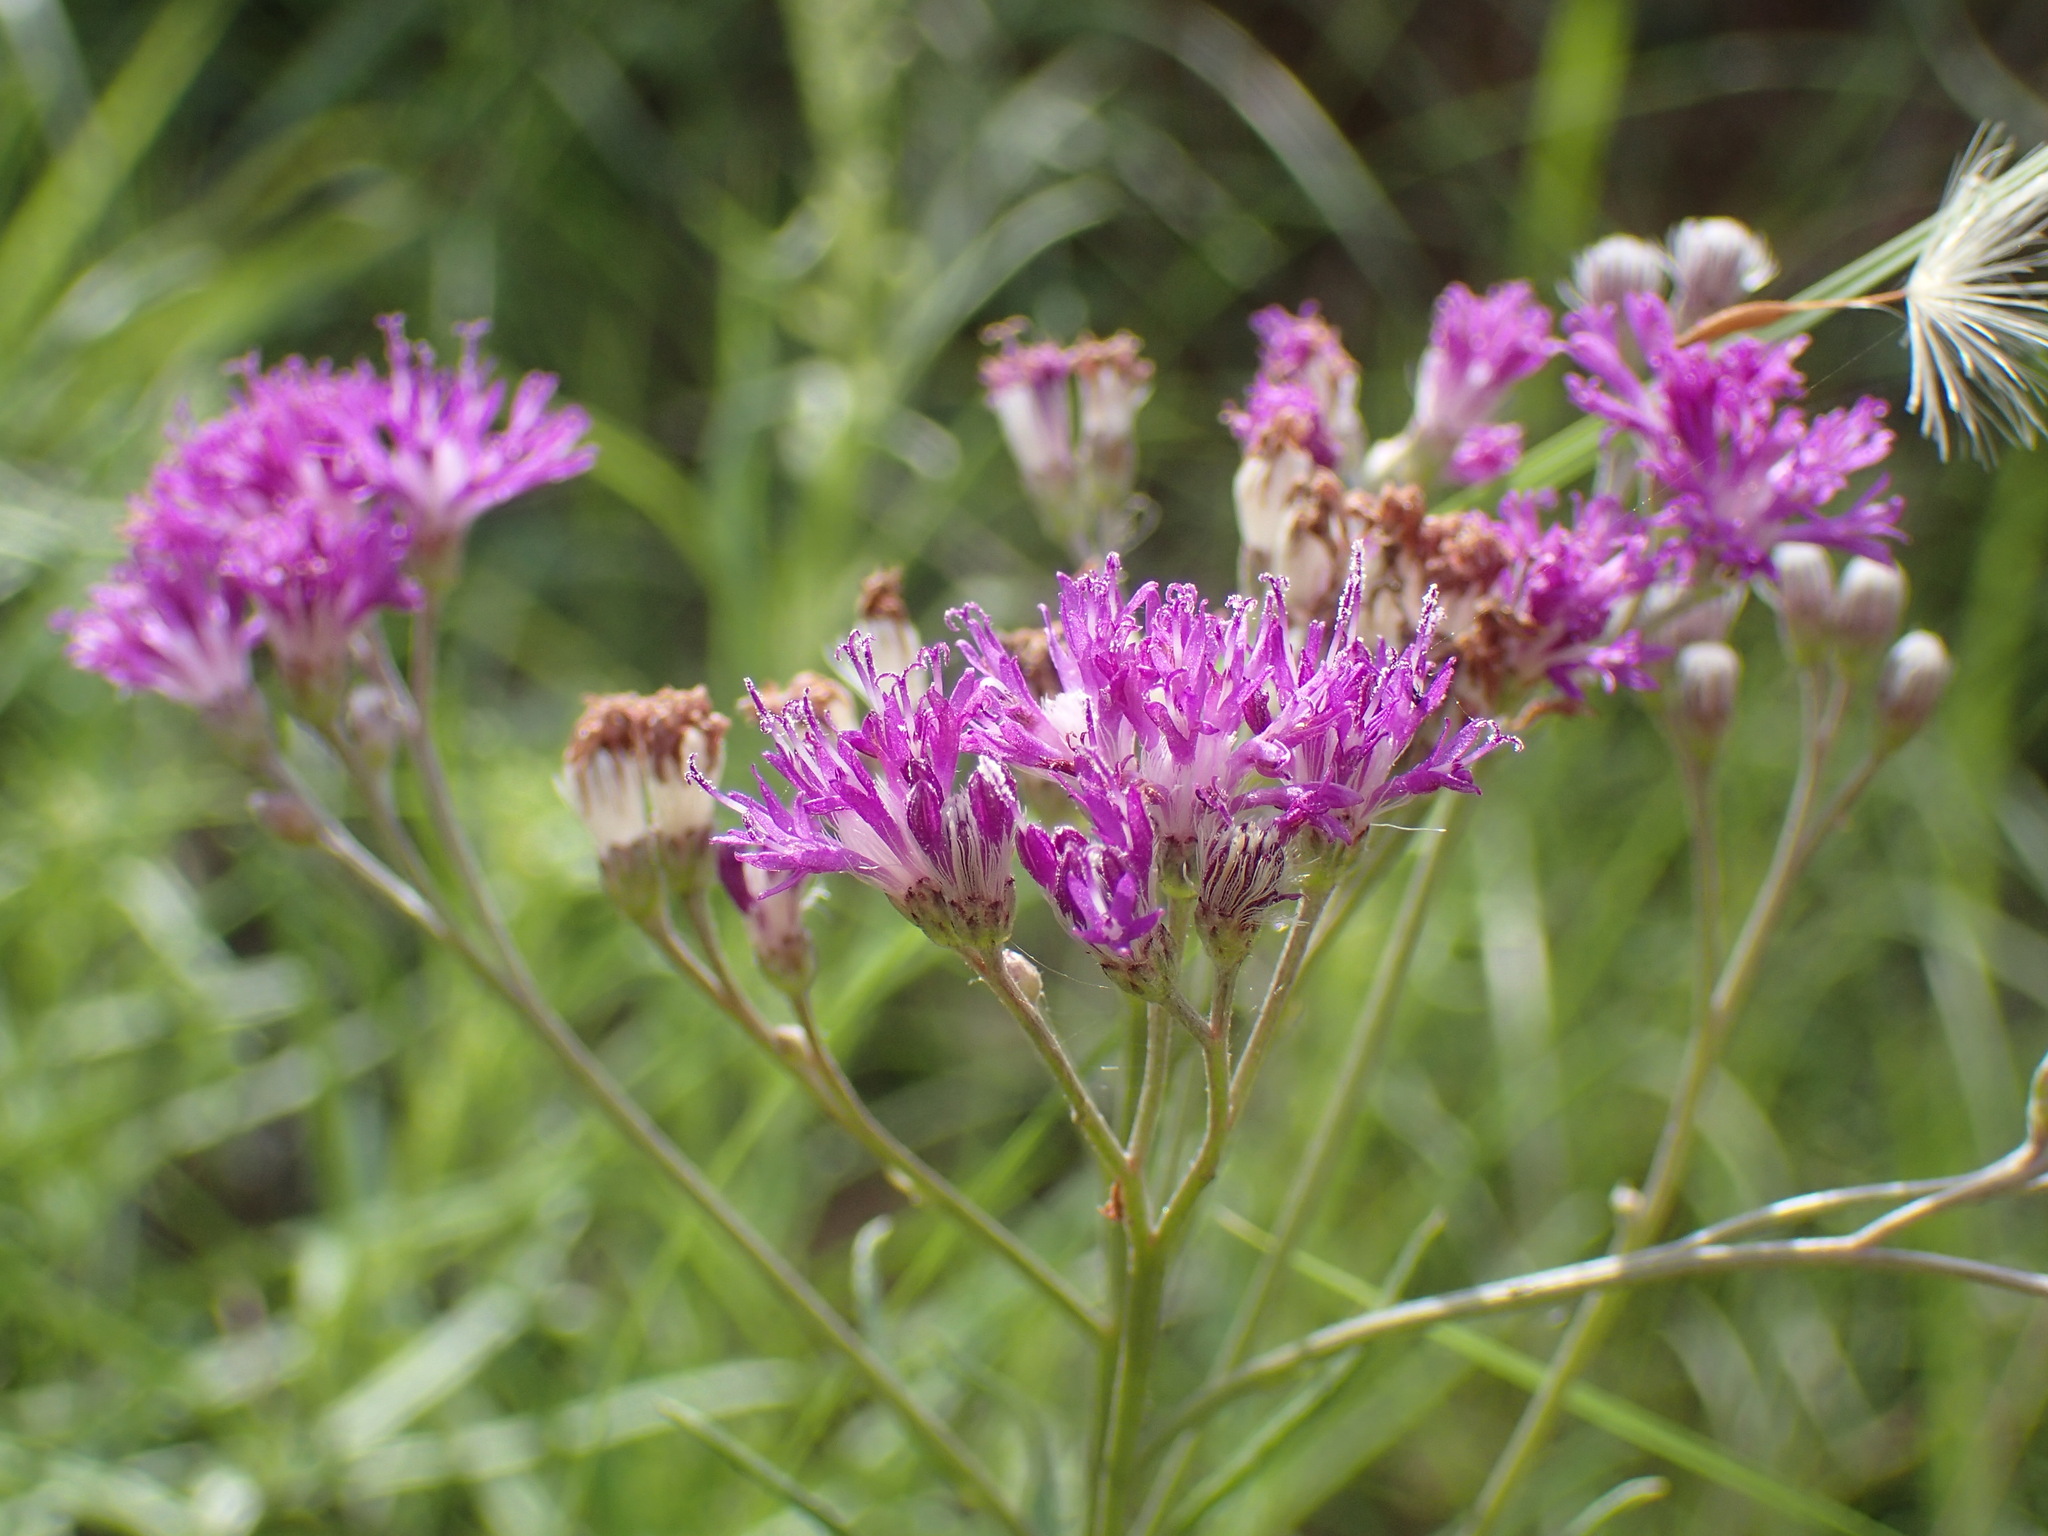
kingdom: Plantae
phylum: Tracheophyta
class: Magnoliopsida
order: Asterales
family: Asteraceae
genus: Hilliardiella
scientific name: Hilliardiella capensis
